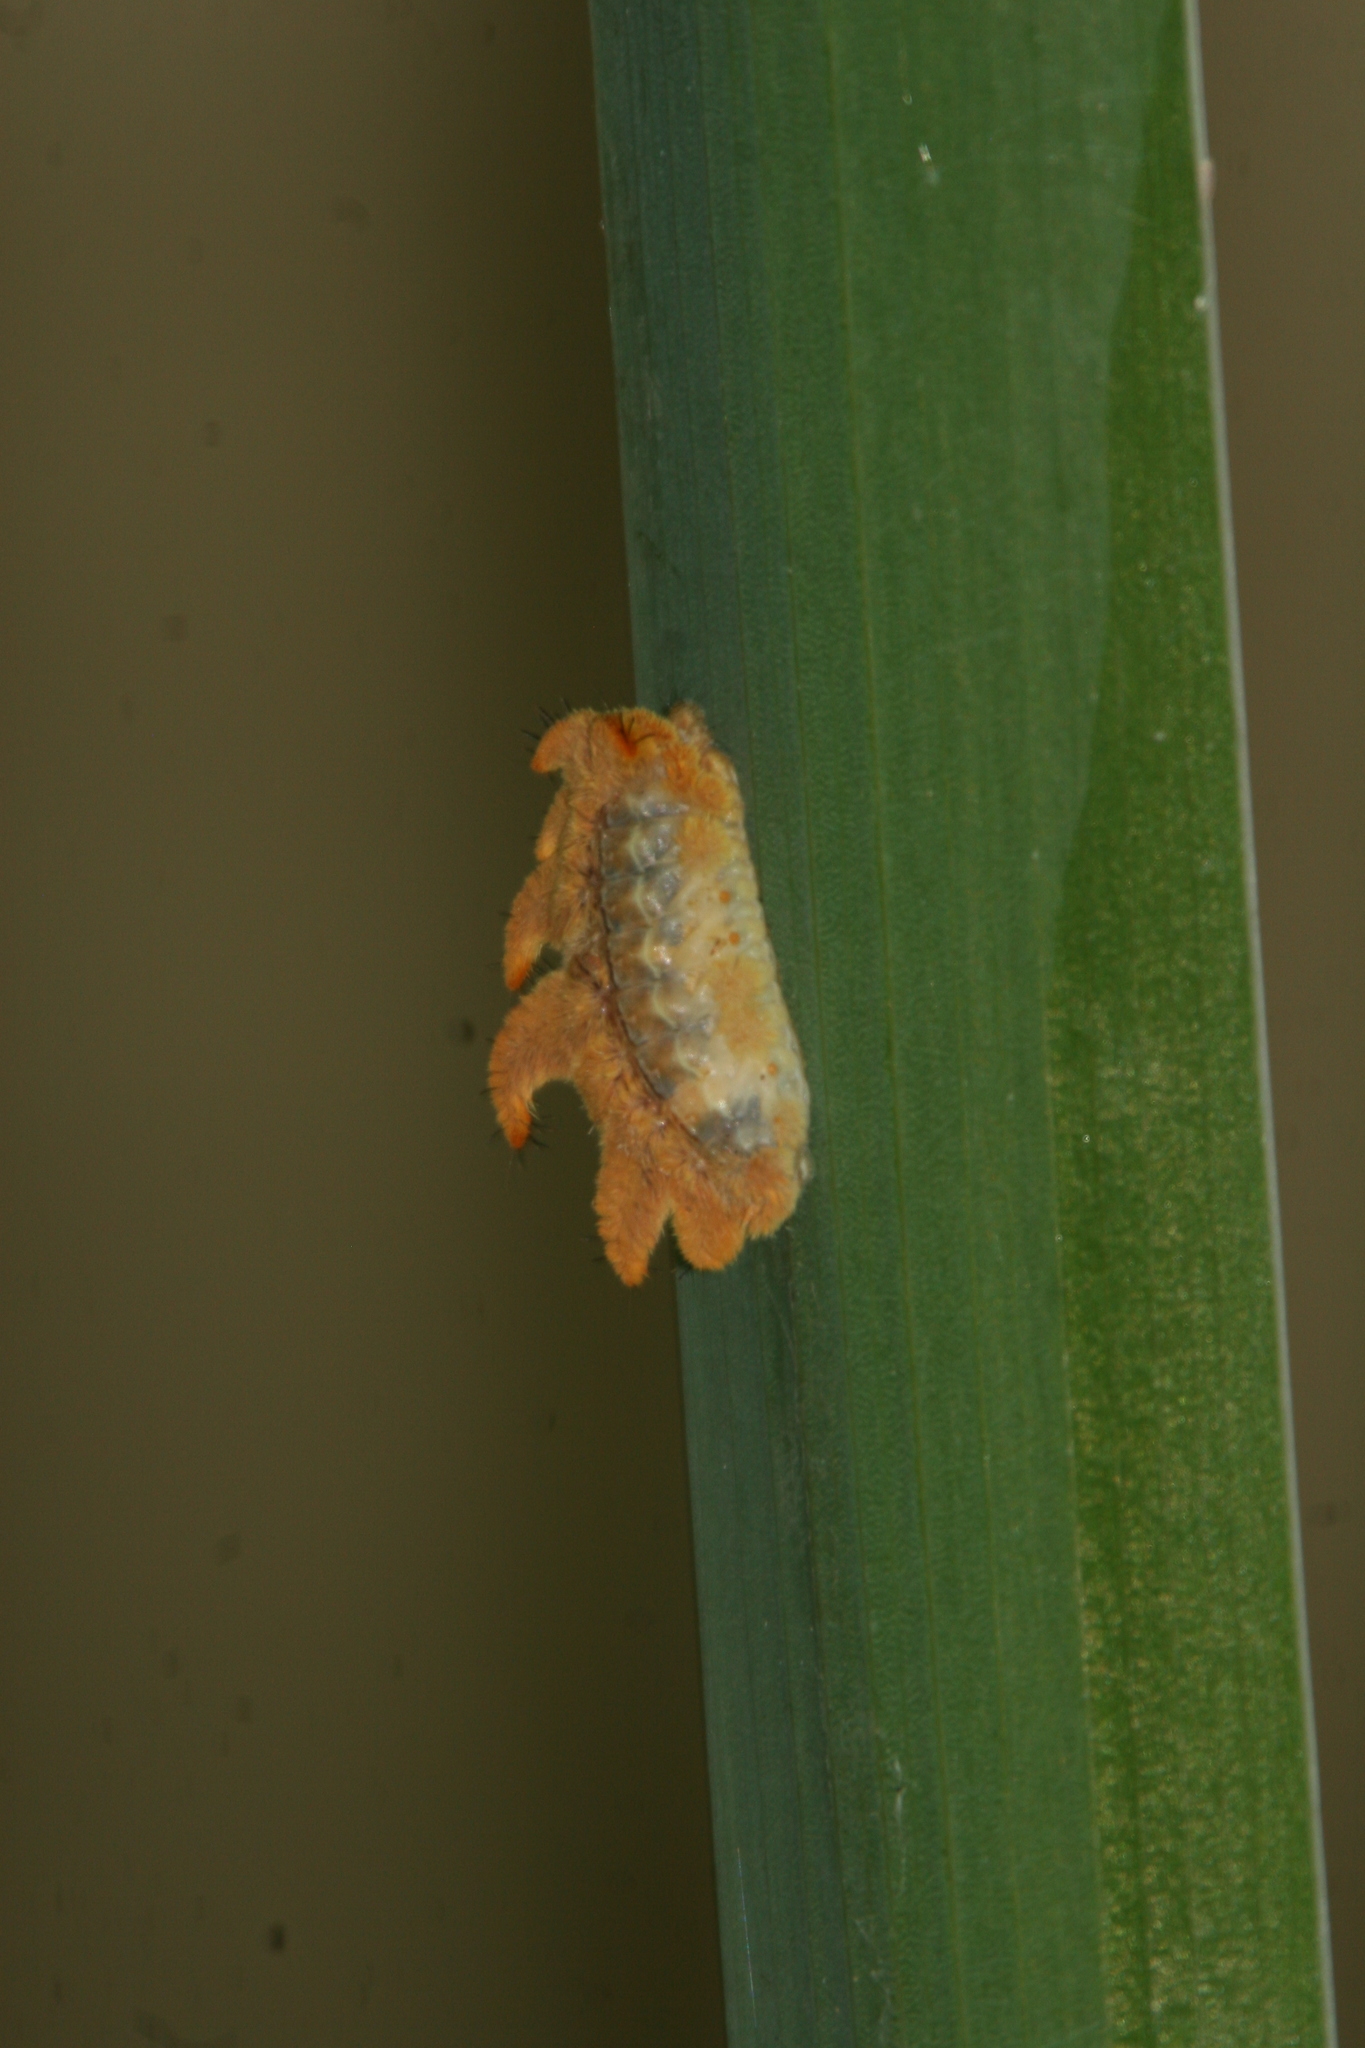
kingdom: Animalia
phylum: Arthropoda
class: Insecta
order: Lepidoptera
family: Limacodidae
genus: Phobetron
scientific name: Phobetron pithecium
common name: Hag moth
